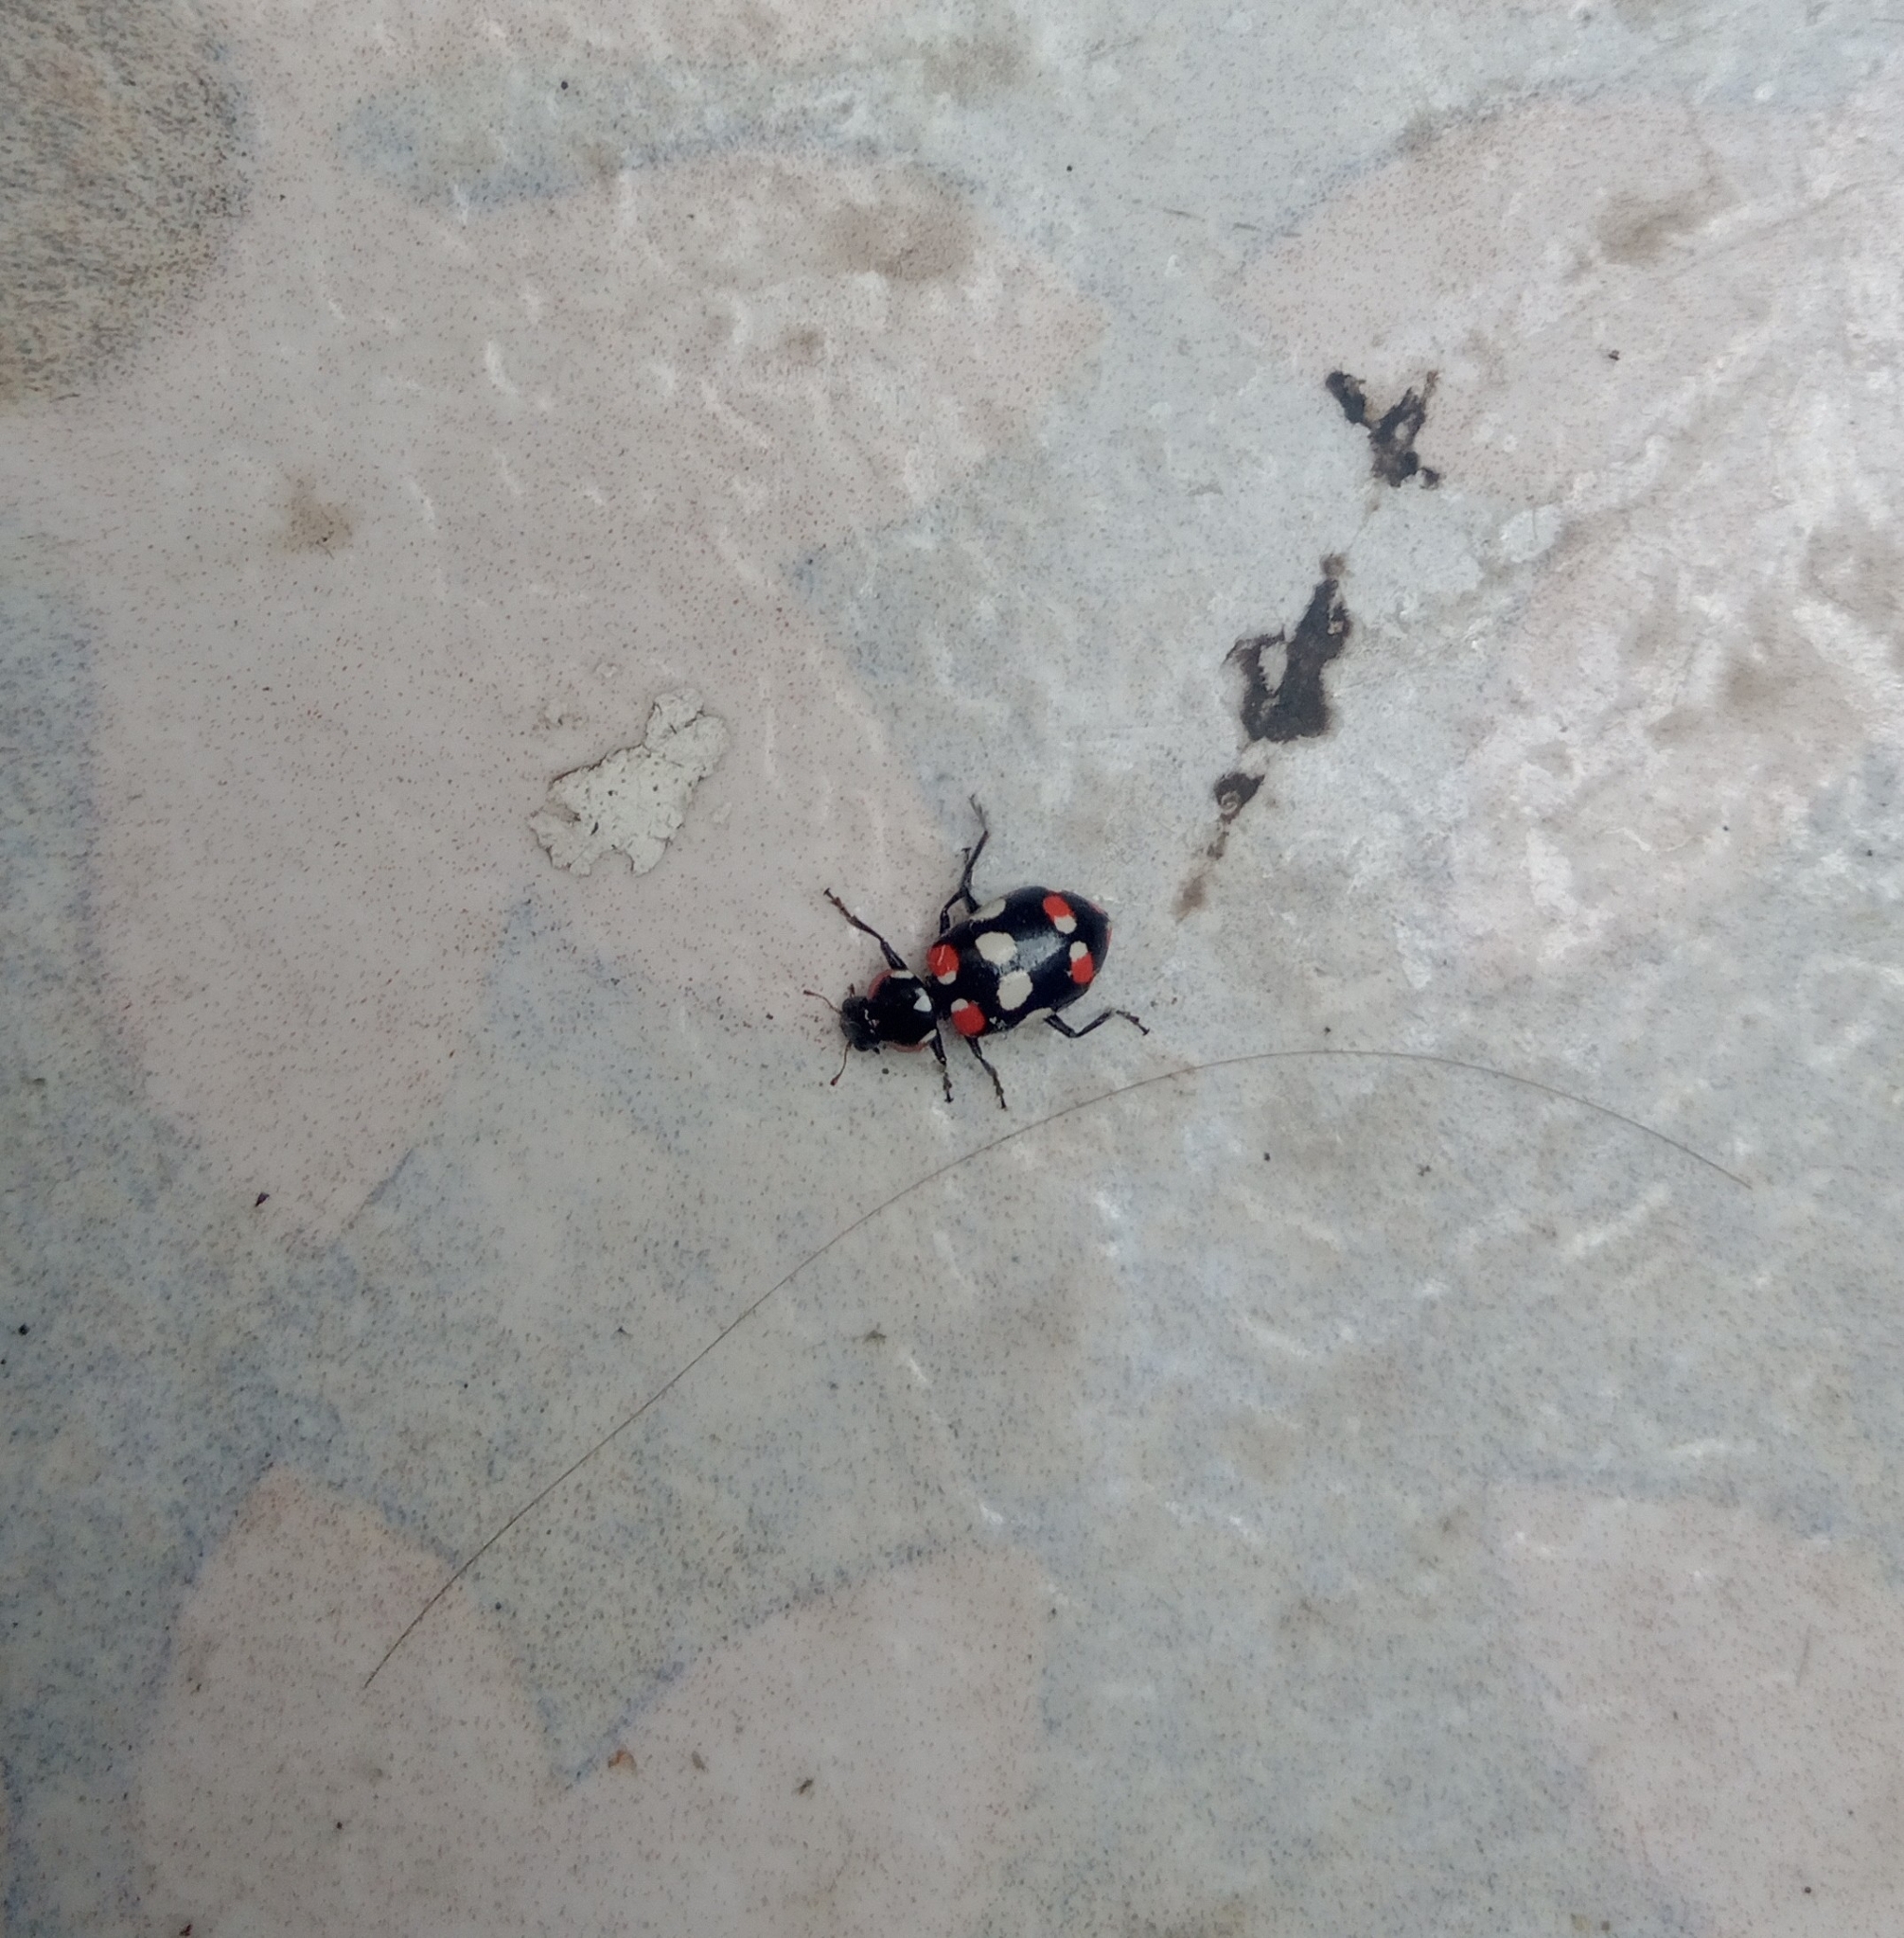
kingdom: Animalia
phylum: Arthropoda
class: Insecta
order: Coleoptera
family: Coccinellidae
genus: Eriopis
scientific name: Eriopis connexa
